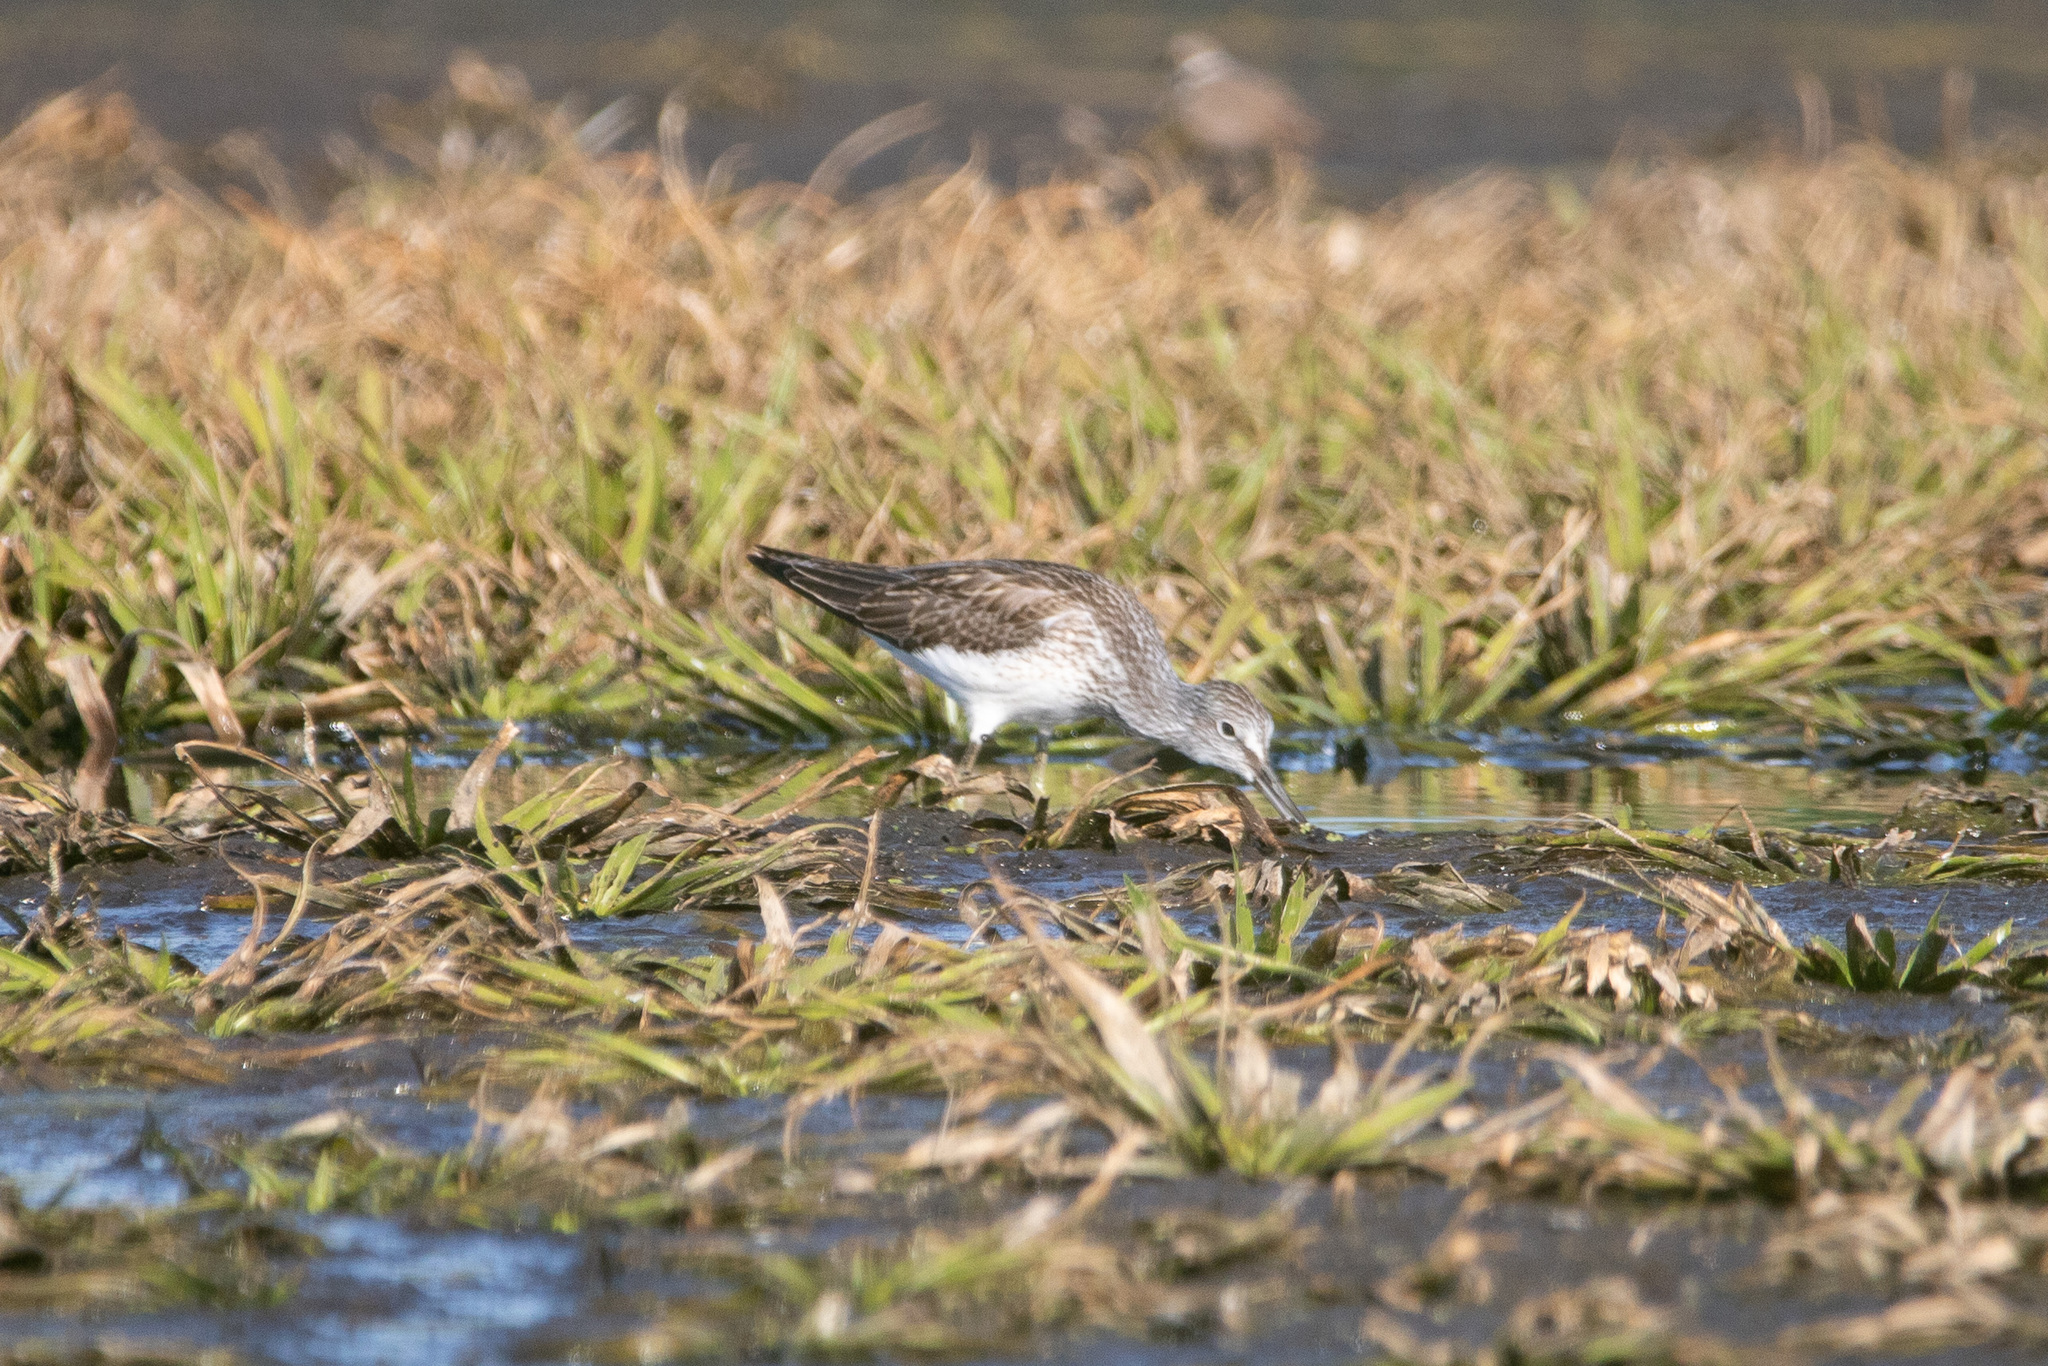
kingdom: Animalia
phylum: Chordata
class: Aves
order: Charadriiformes
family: Scolopacidae
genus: Tringa
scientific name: Tringa nebularia
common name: Common greenshank
